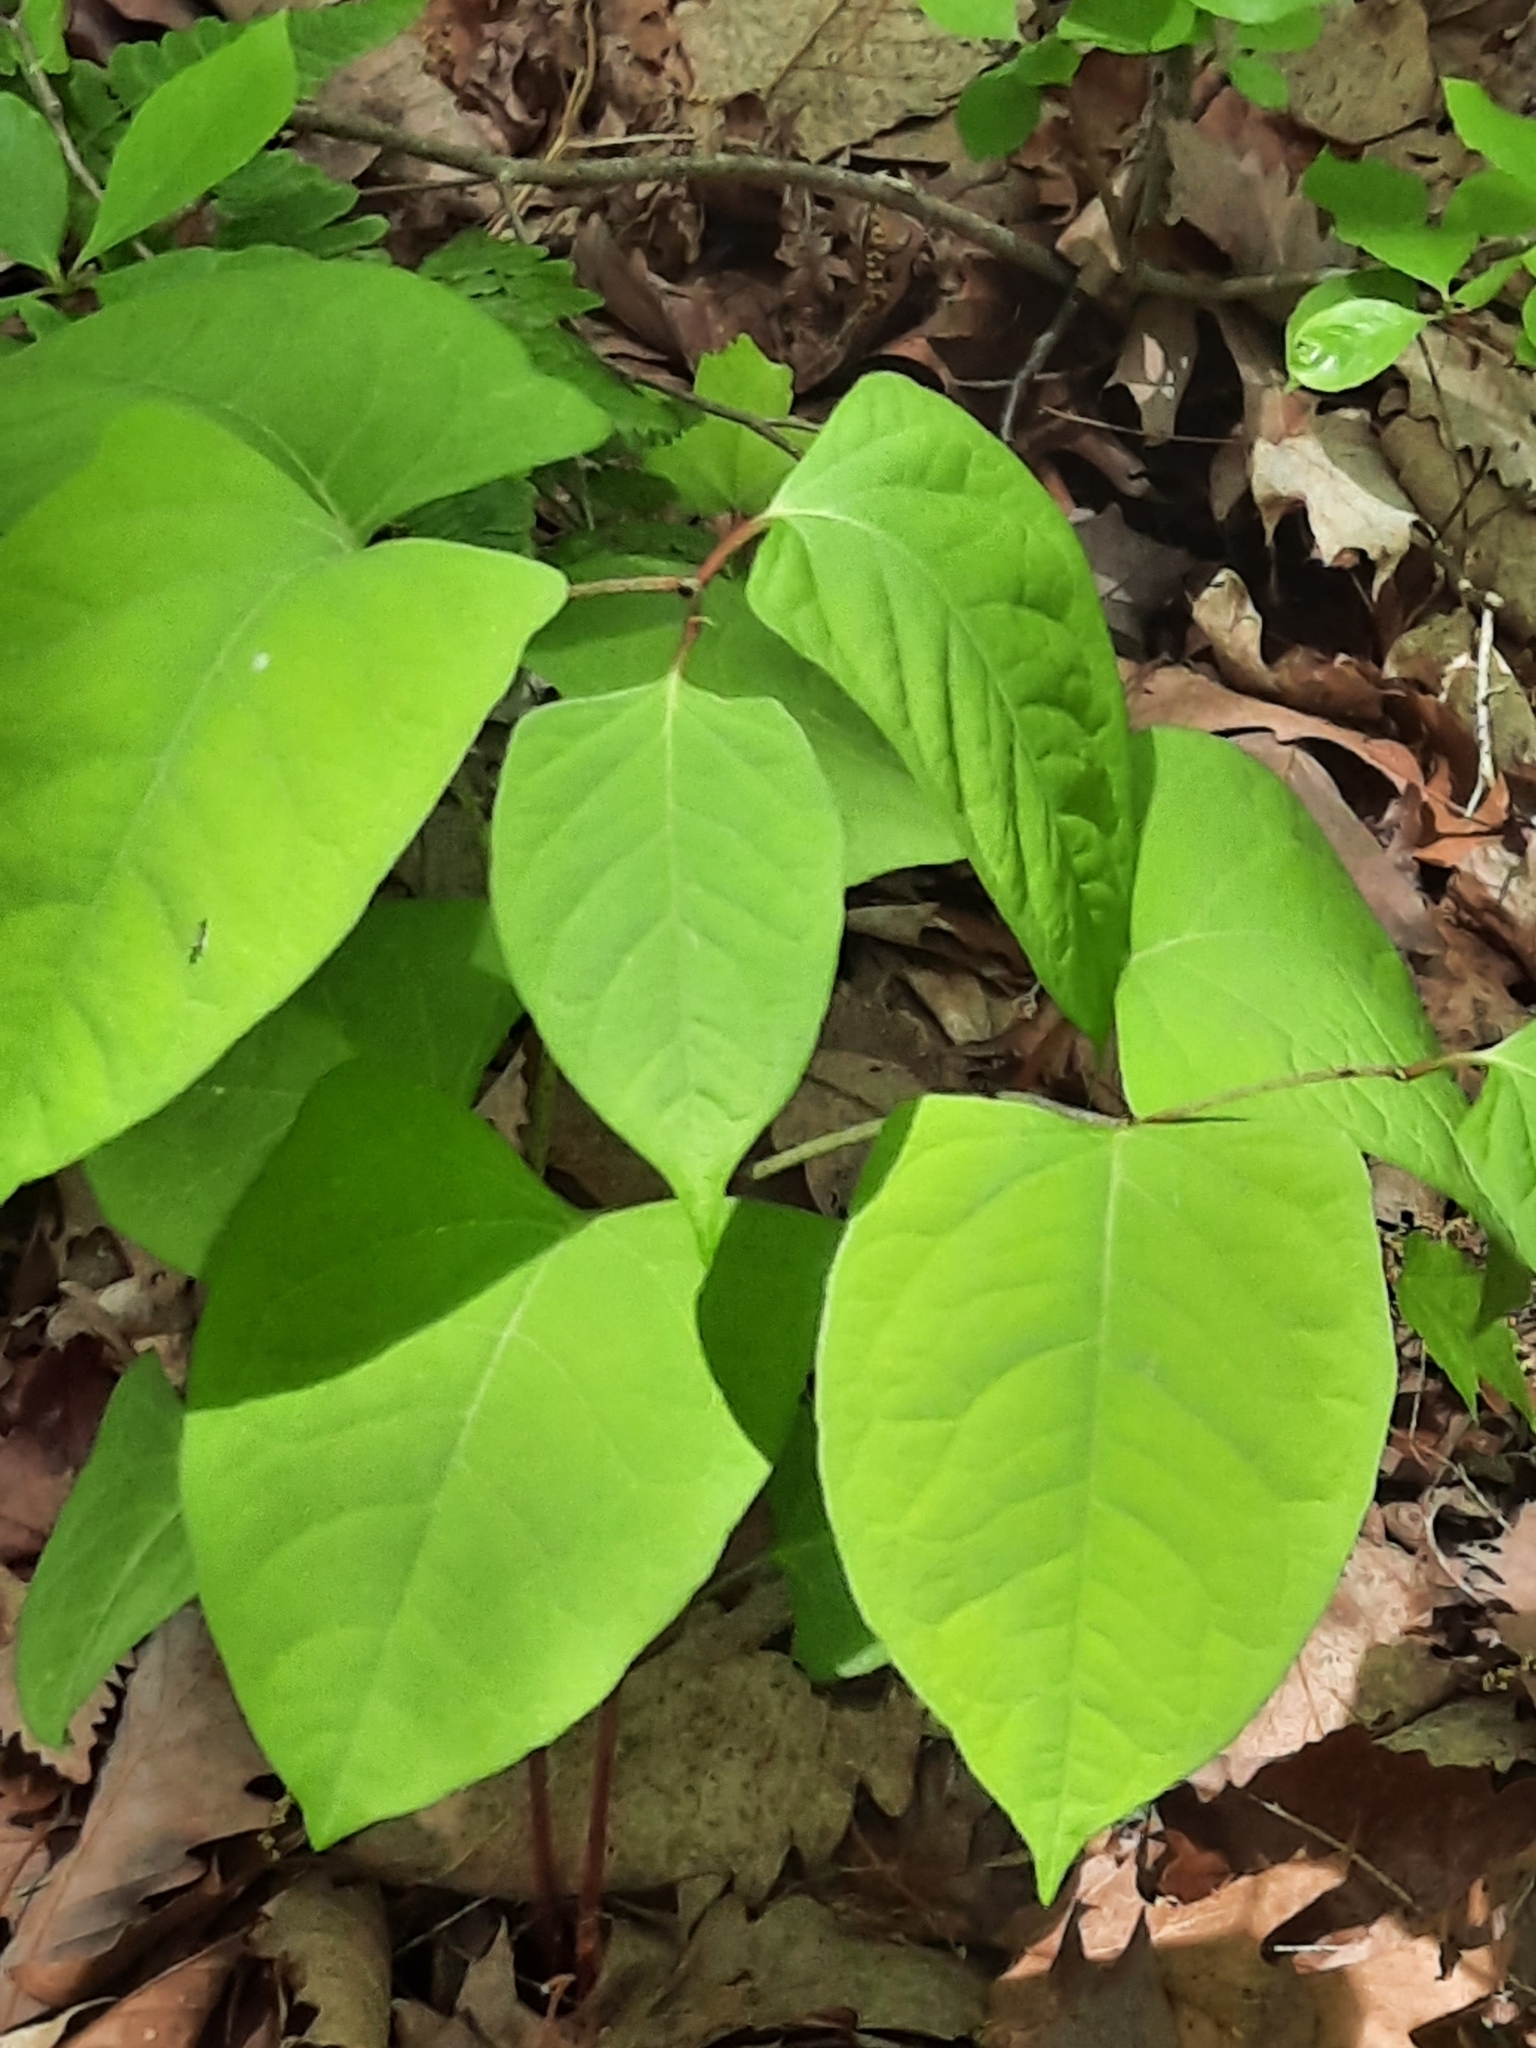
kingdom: Plantae
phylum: Tracheophyta
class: Magnoliopsida
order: Caryophyllales
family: Polygonaceae
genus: Reynoutria
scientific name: Reynoutria japonica
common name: Japanese knotweed
